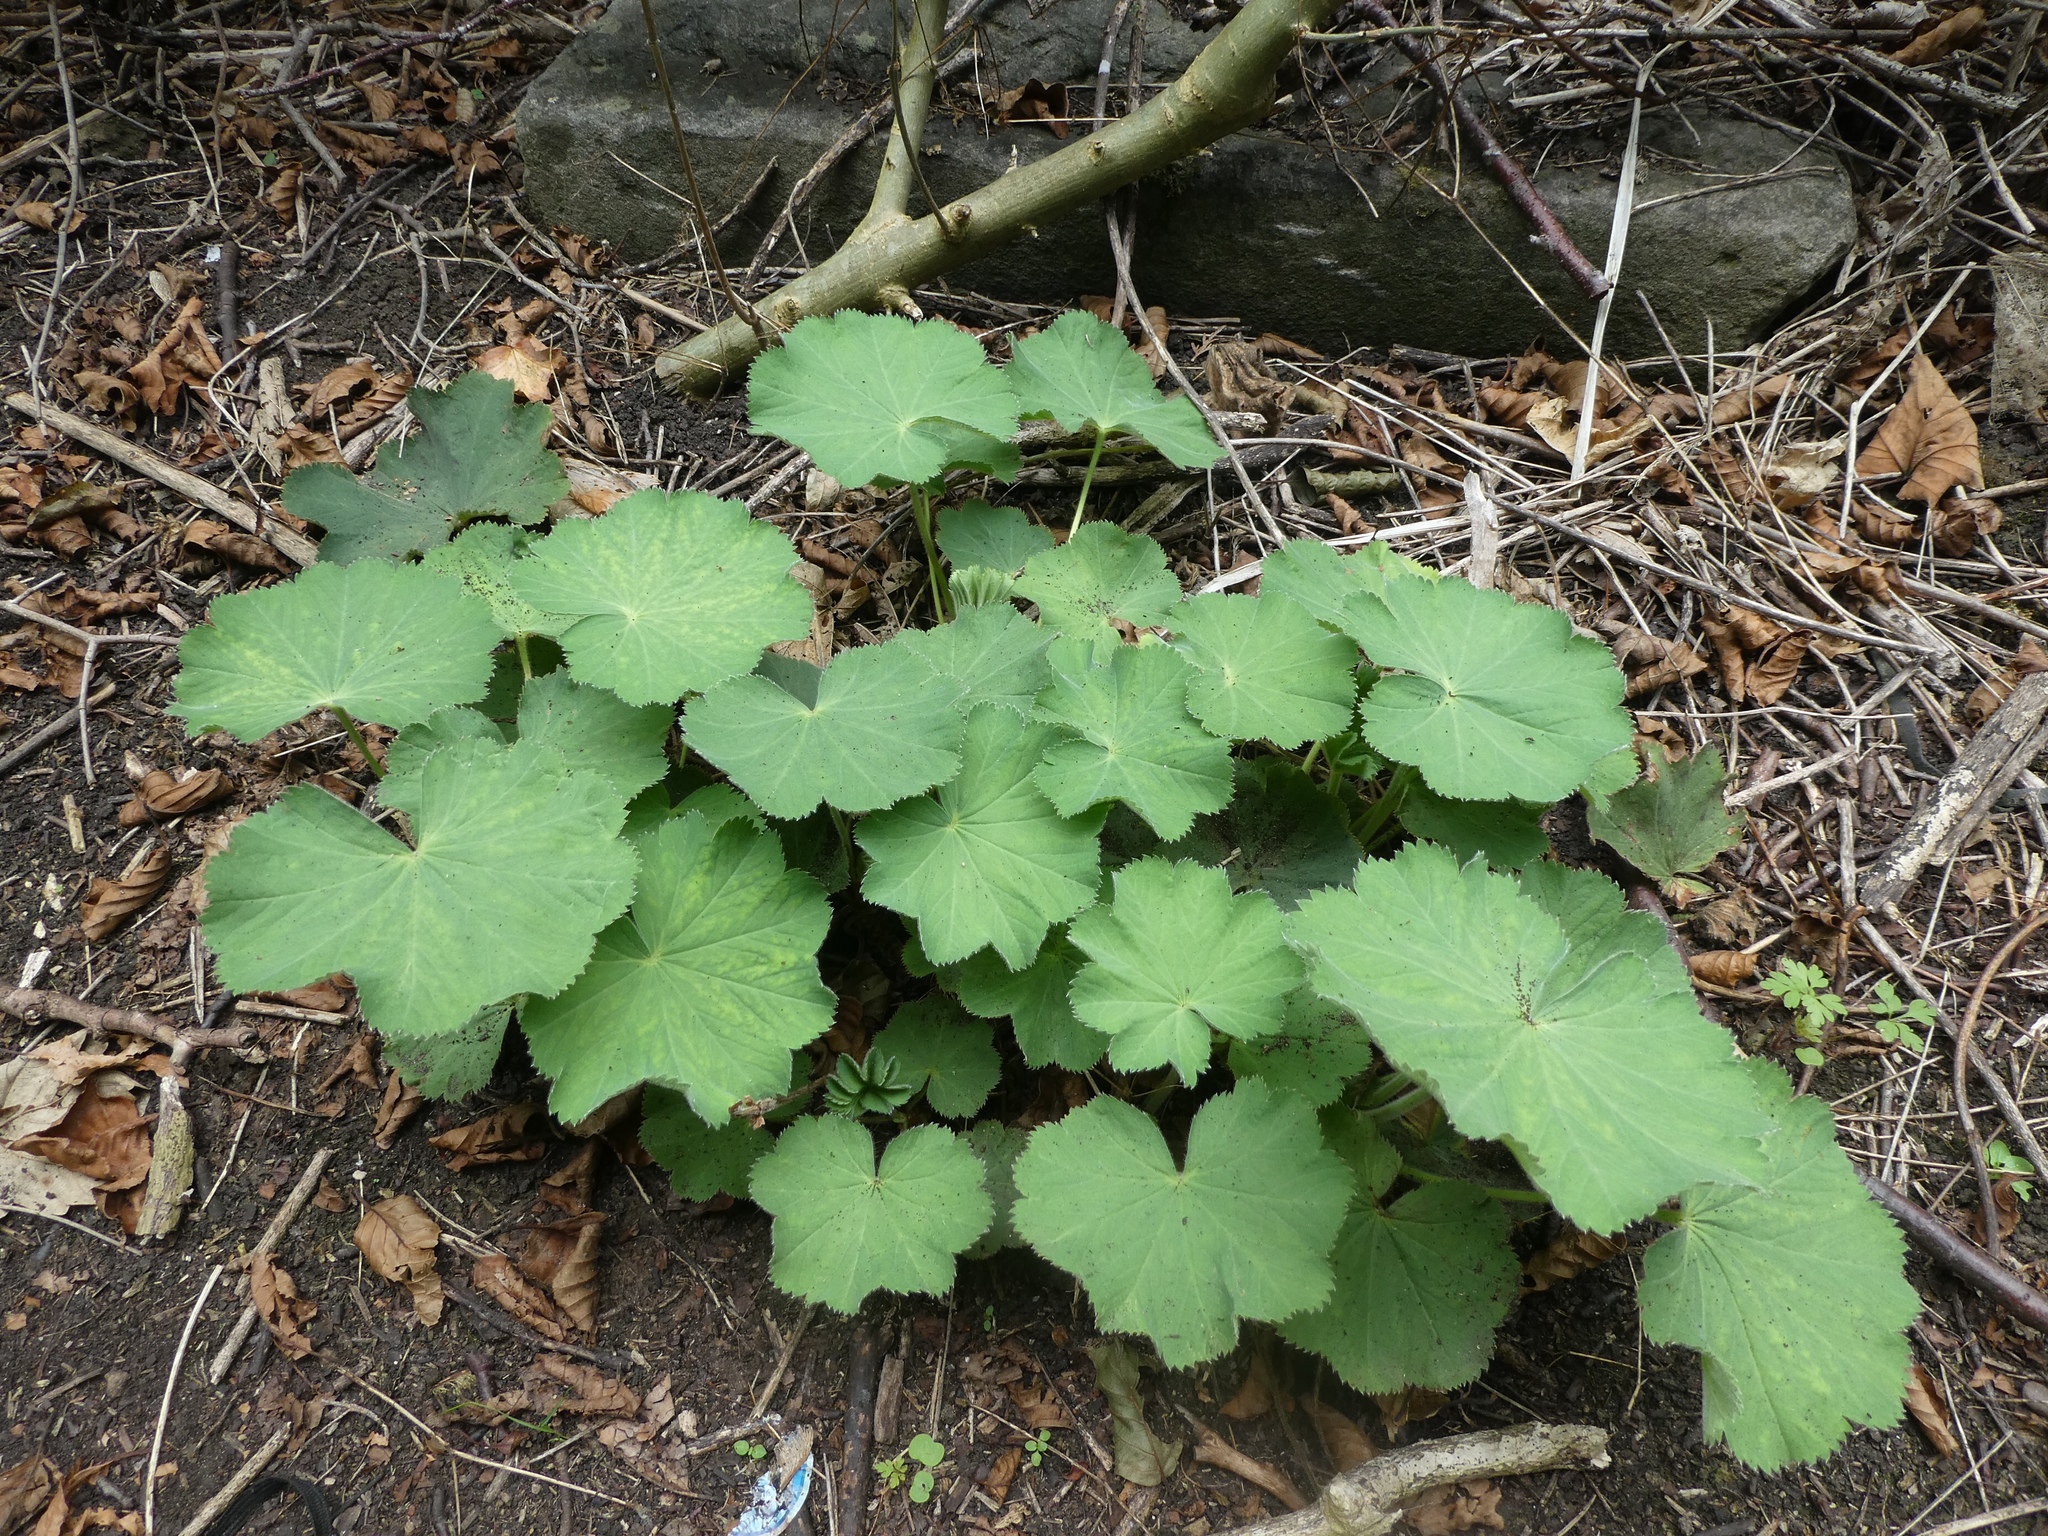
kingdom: Plantae
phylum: Tracheophyta
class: Magnoliopsida
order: Rosales
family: Rosaceae
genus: Alchemilla
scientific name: Alchemilla mollis
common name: Lady's-mantle
